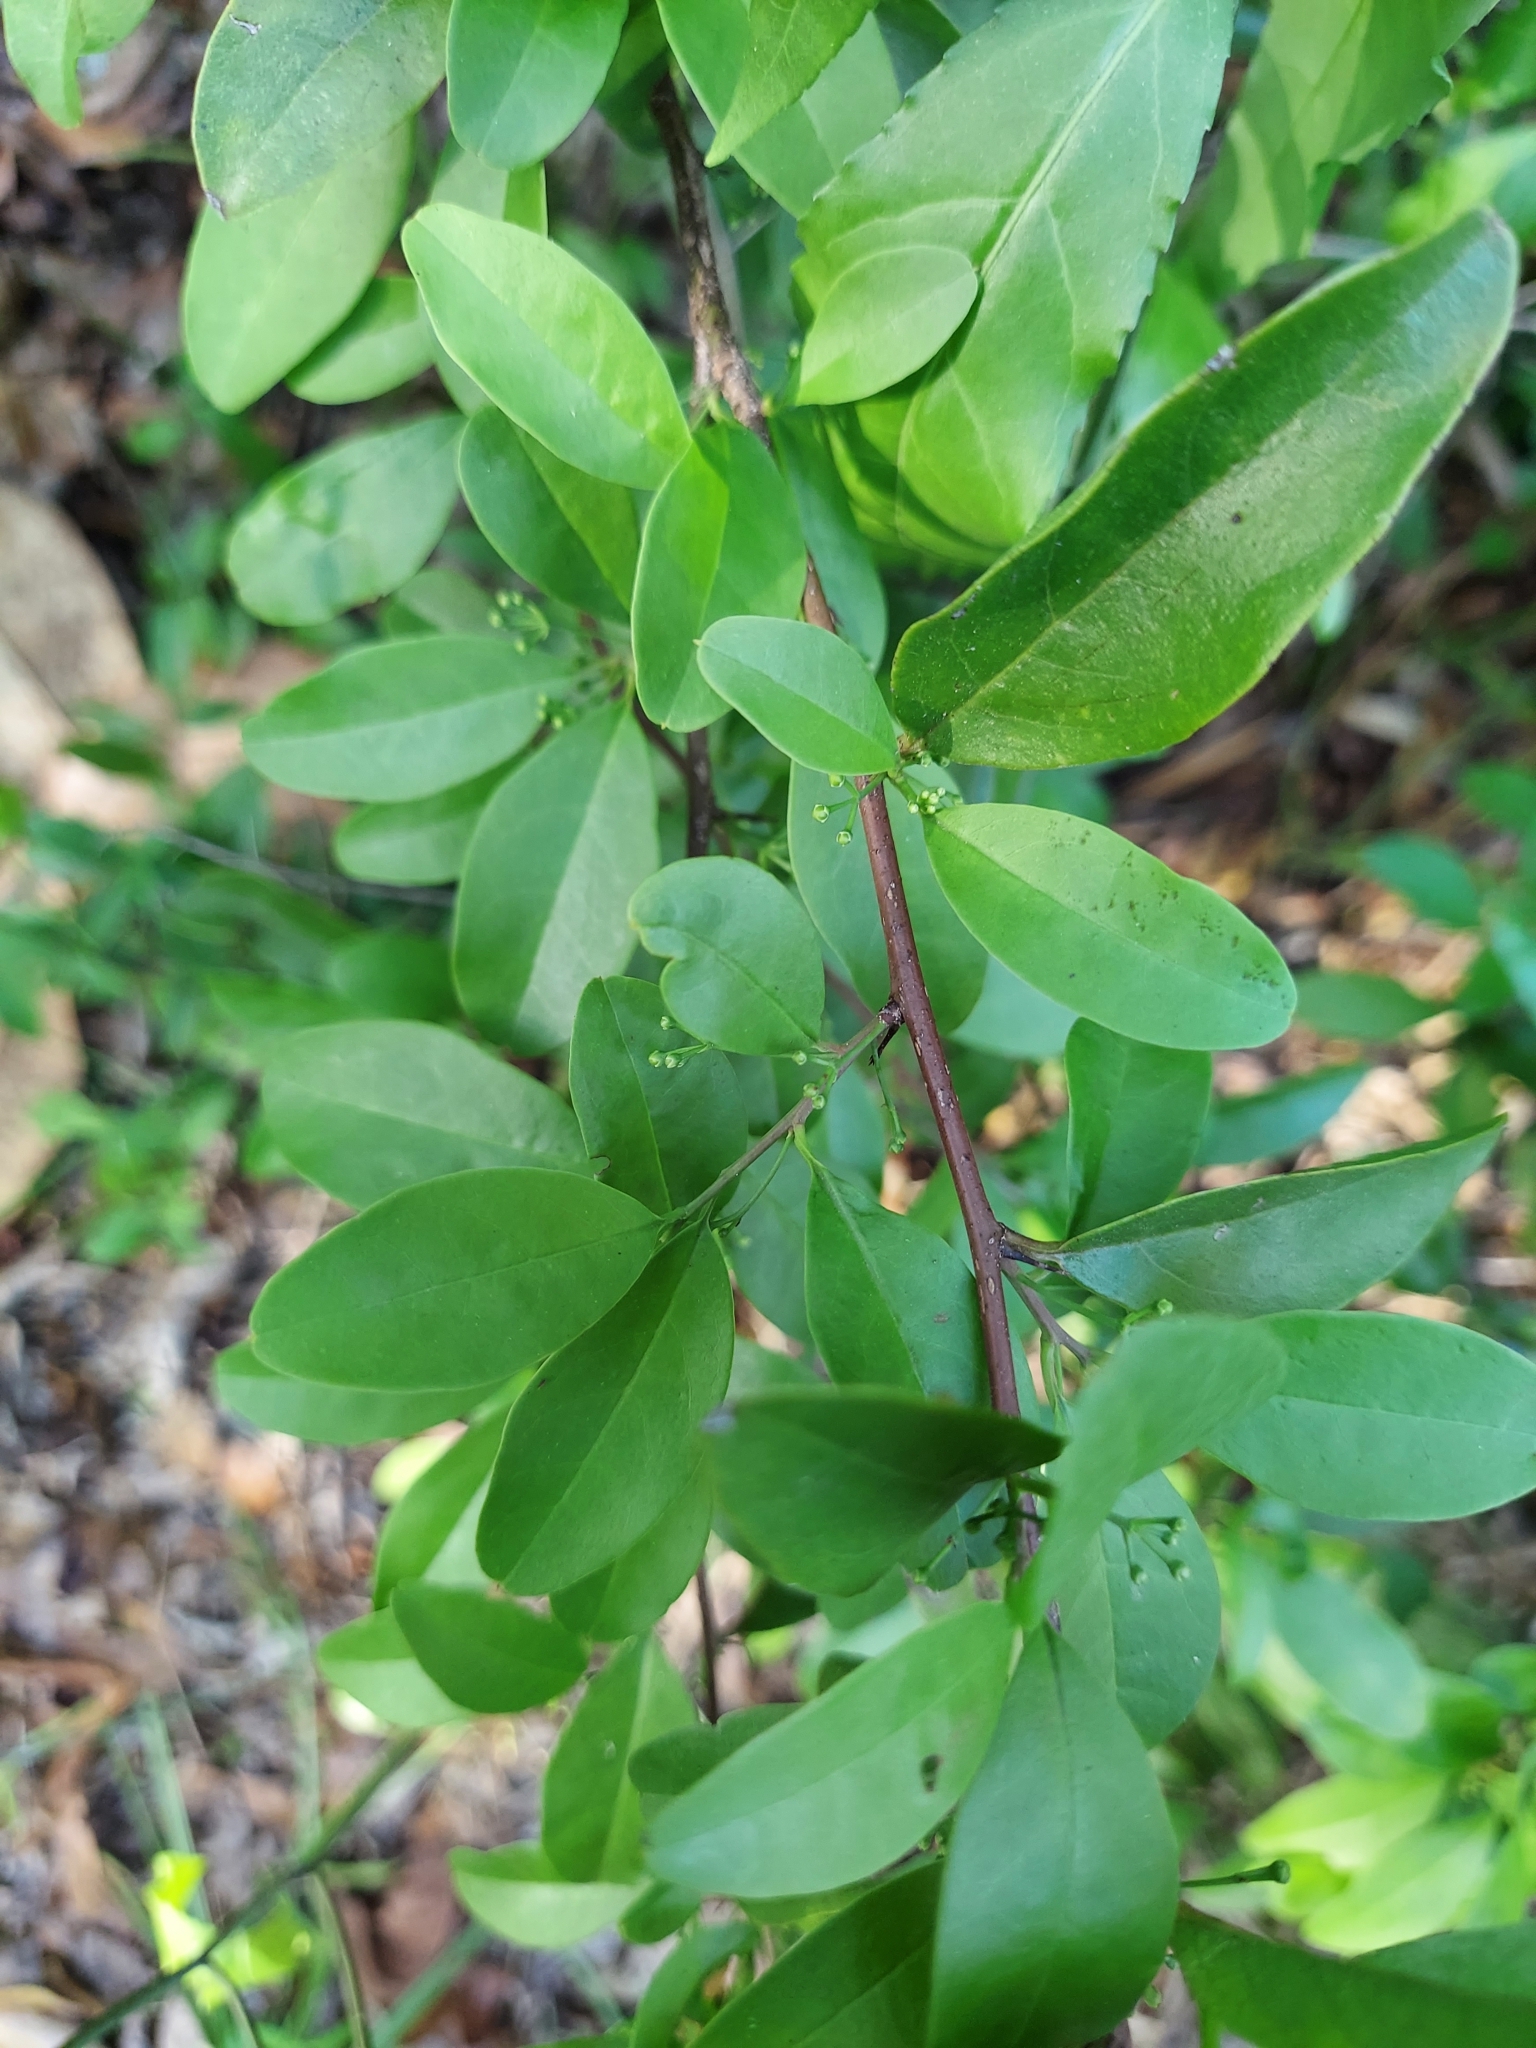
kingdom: Plantae
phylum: Tracheophyta
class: Magnoliopsida
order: Santalales
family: Ximeniaceae
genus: Ximenia
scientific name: Ximenia americana
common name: Tallowwood
